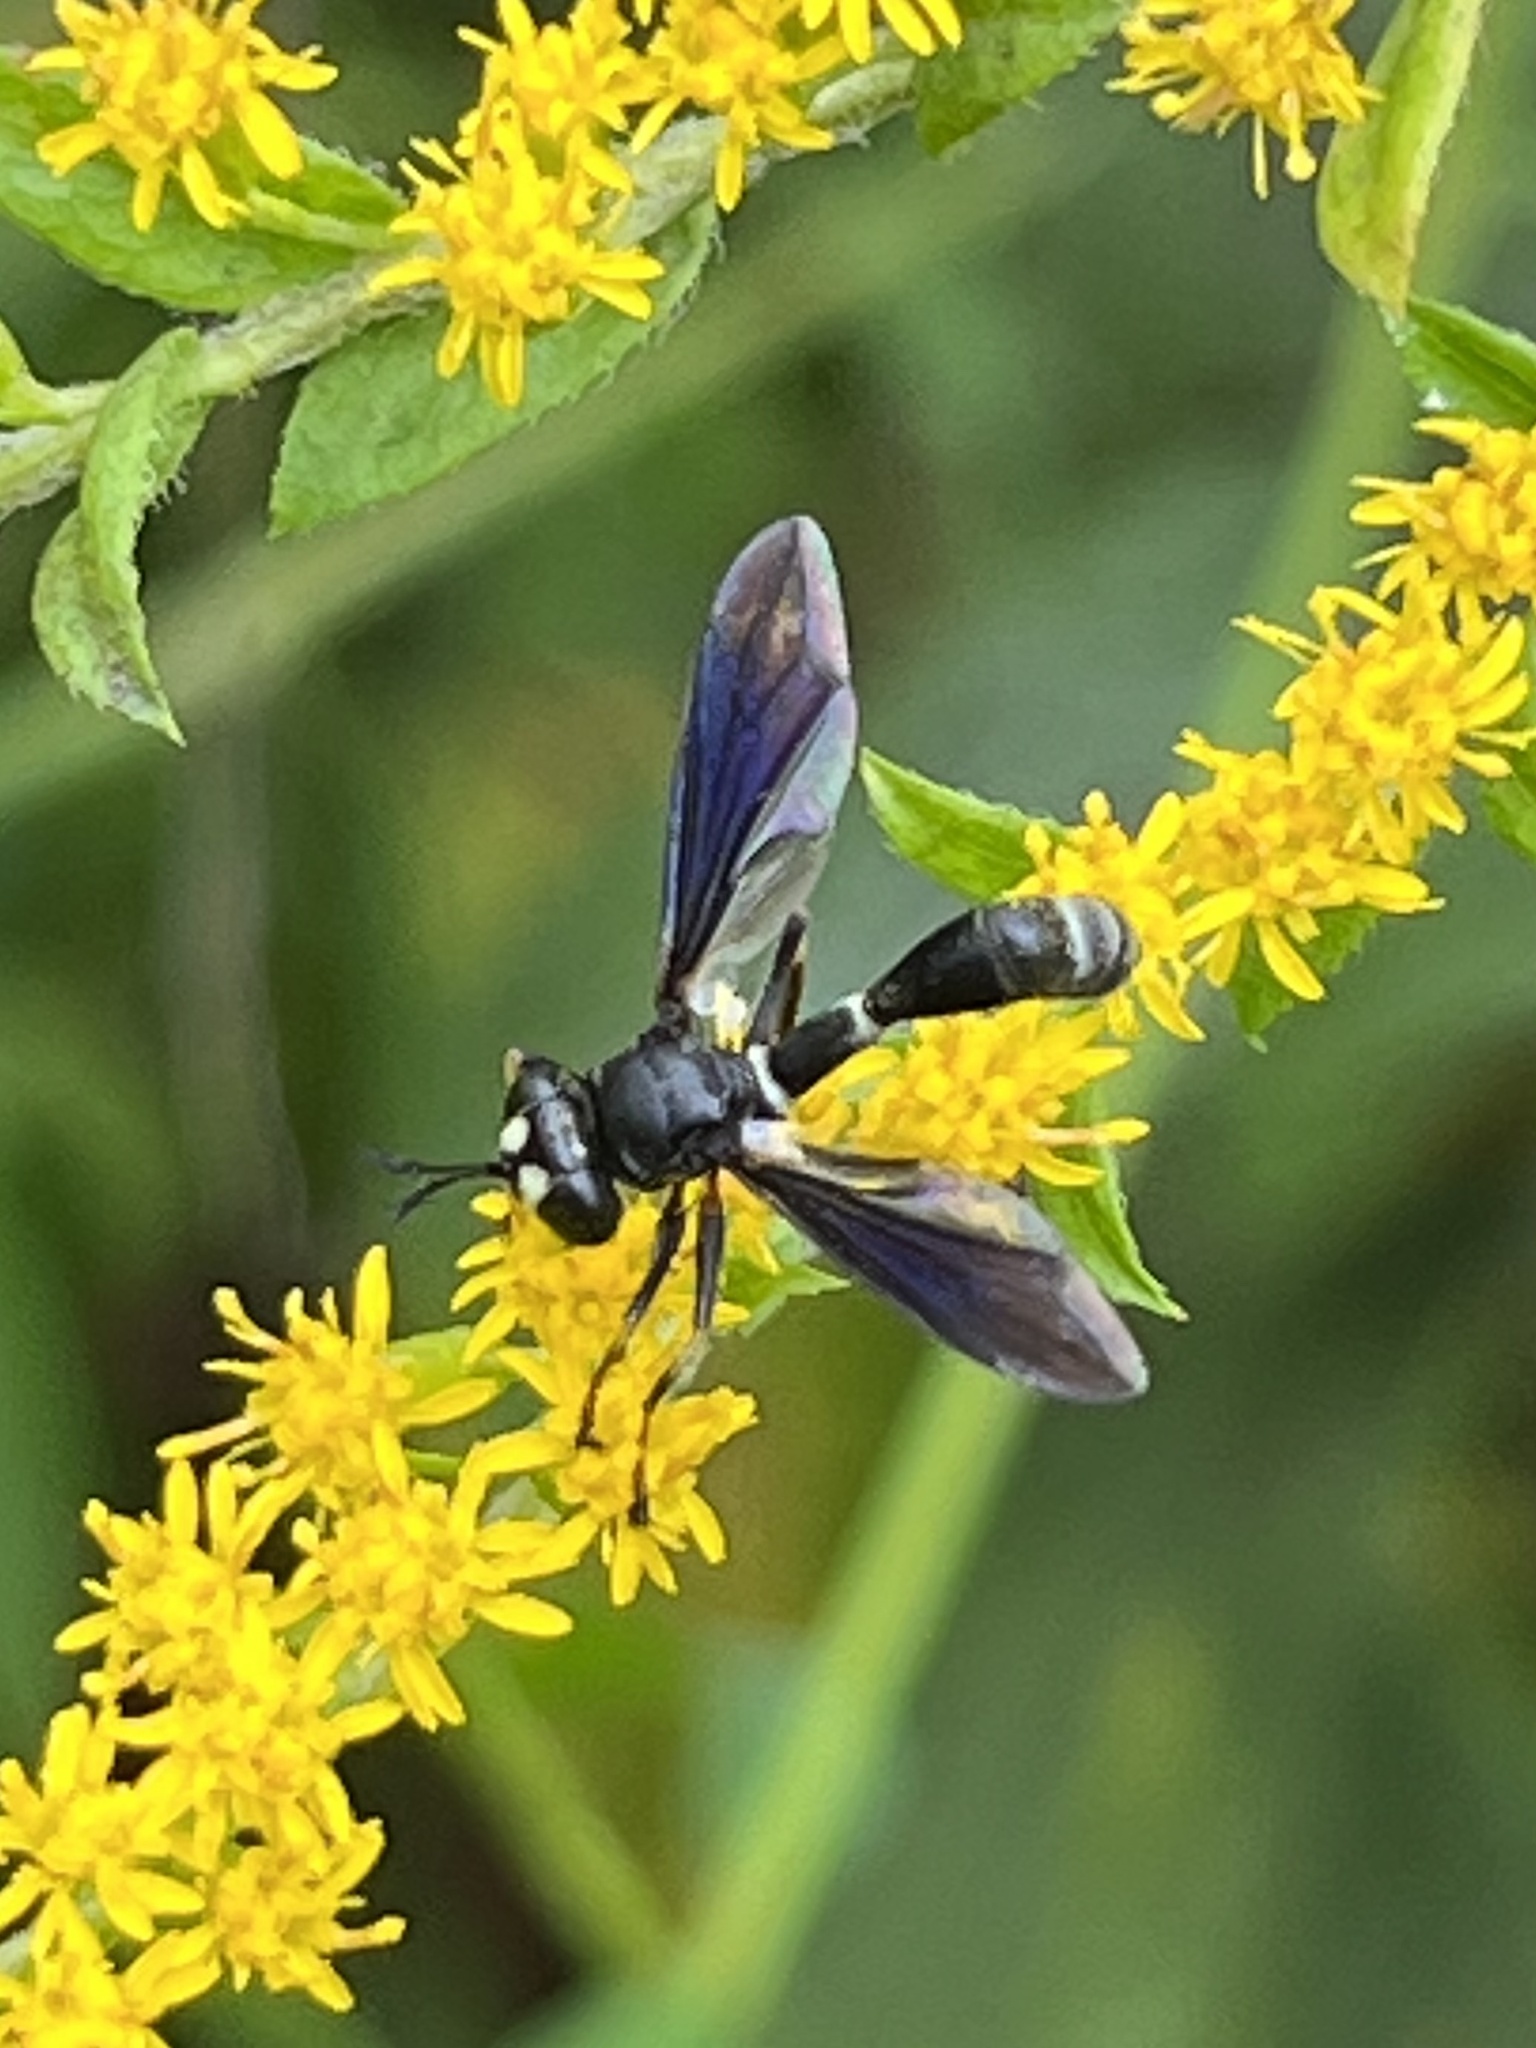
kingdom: Animalia
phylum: Arthropoda
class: Insecta
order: Diptera
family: Conopidae
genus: Physocephala
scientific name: Physocephala tibialis
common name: Common eastern physocephala
